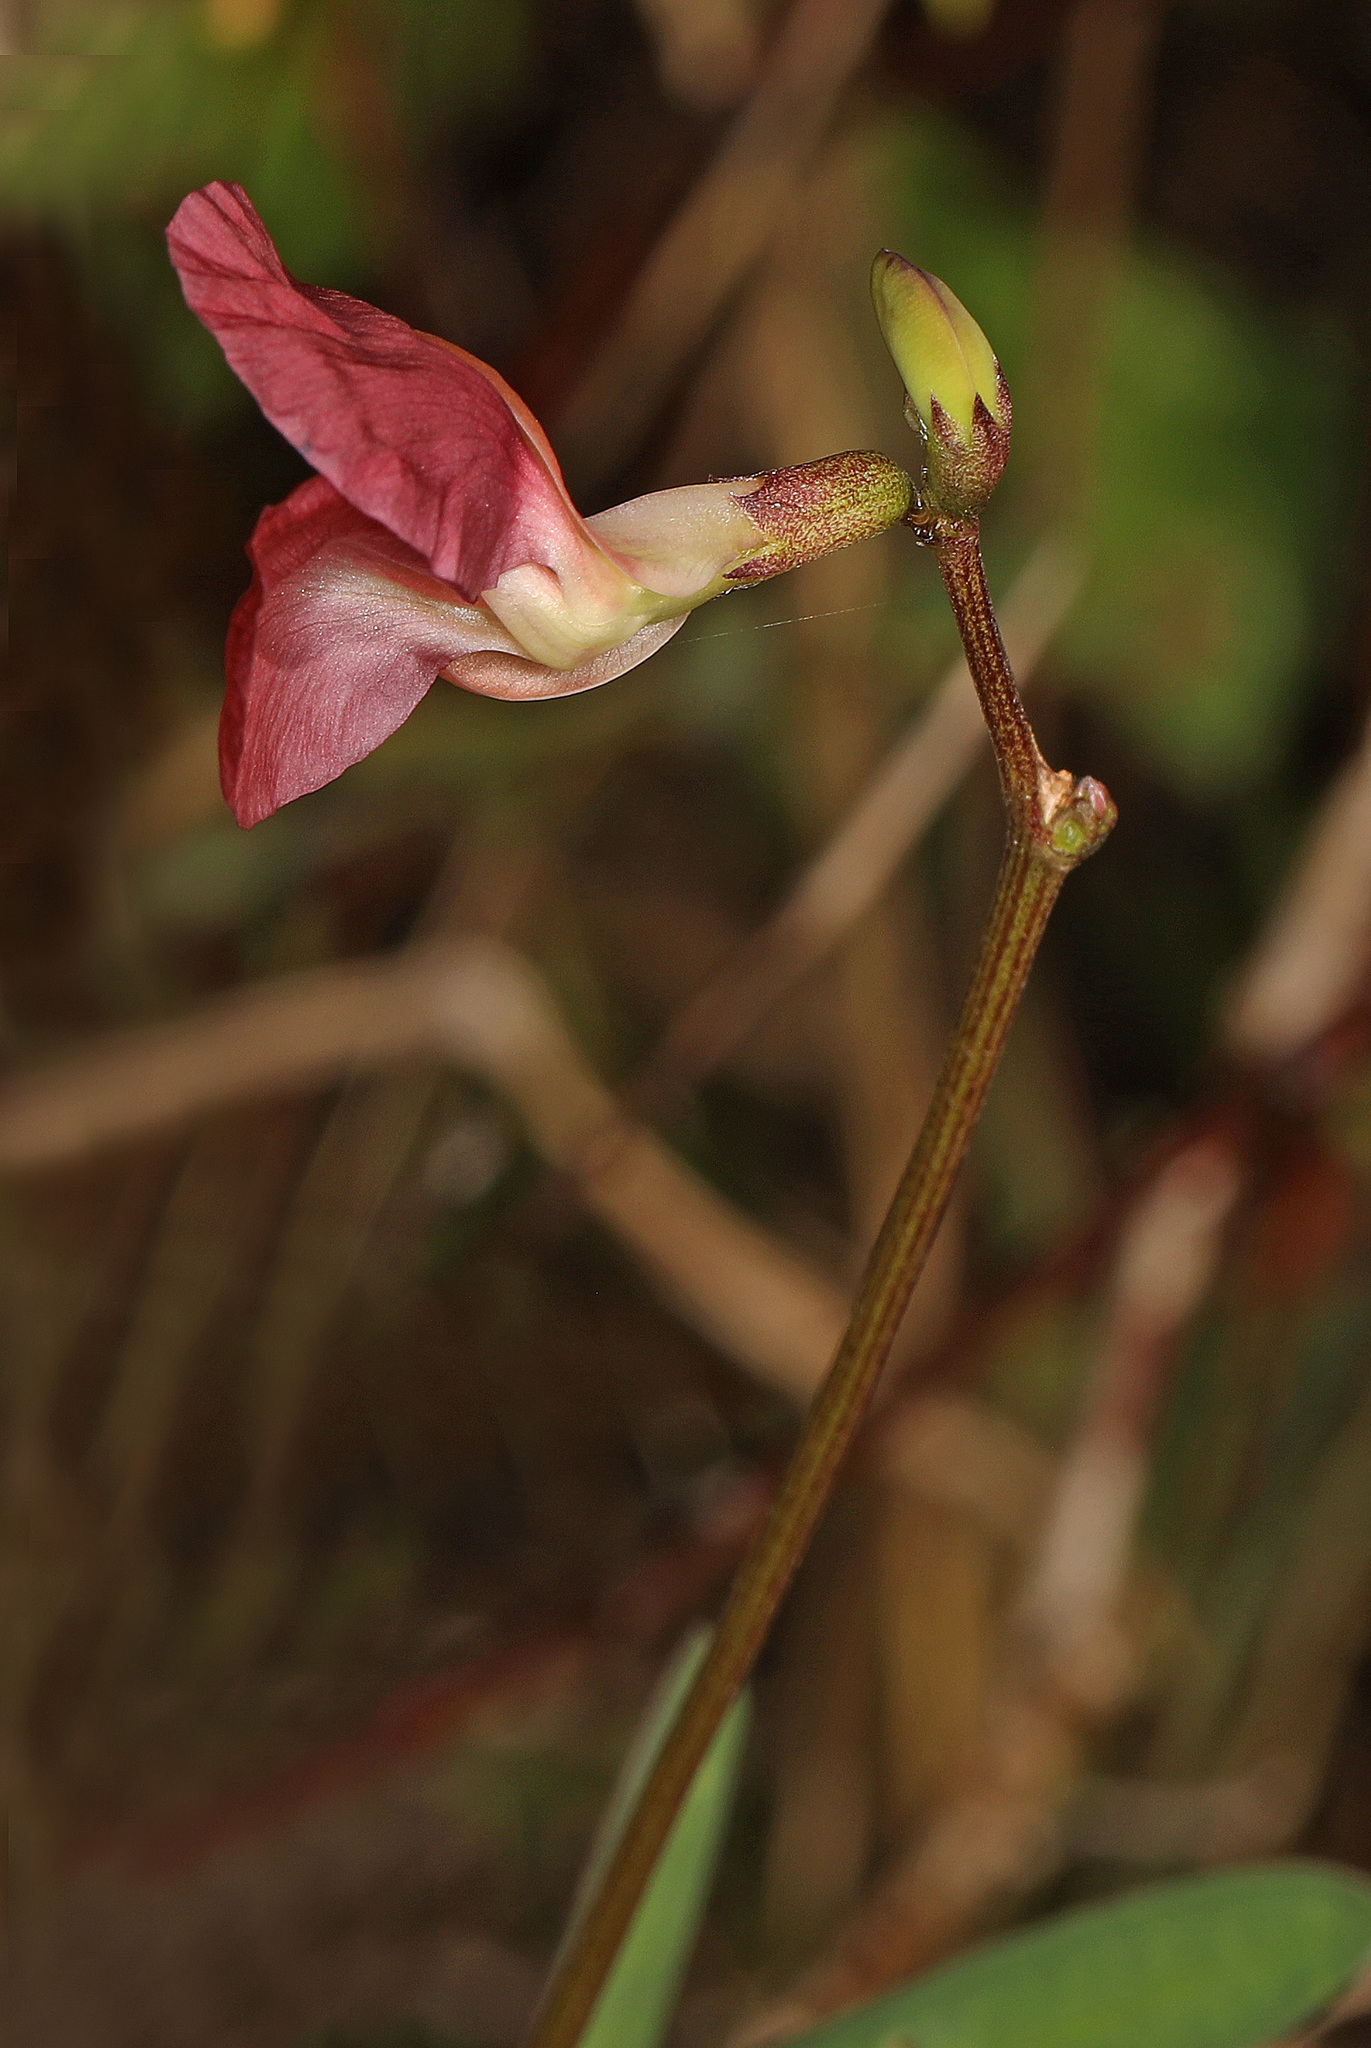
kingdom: Plantae
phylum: Tracheophyta
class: Magnoliopsida
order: Fabales
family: Fabaceae
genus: Macroptilium
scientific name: Macroptilium lathyroides
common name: Wild bushbean
